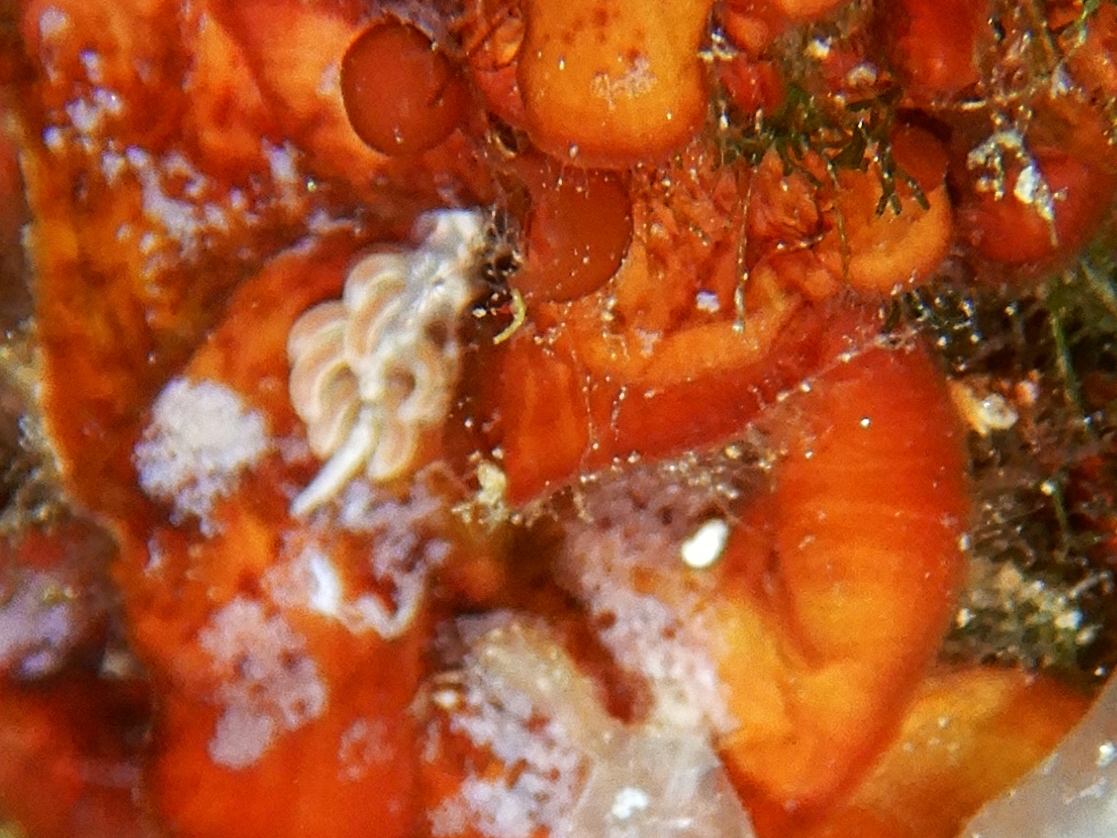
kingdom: Animalia
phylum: Mollusca
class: Gastropoda
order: Nudibranchia
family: Facelinidae
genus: Facelina
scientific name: Facelina rubrovittata
